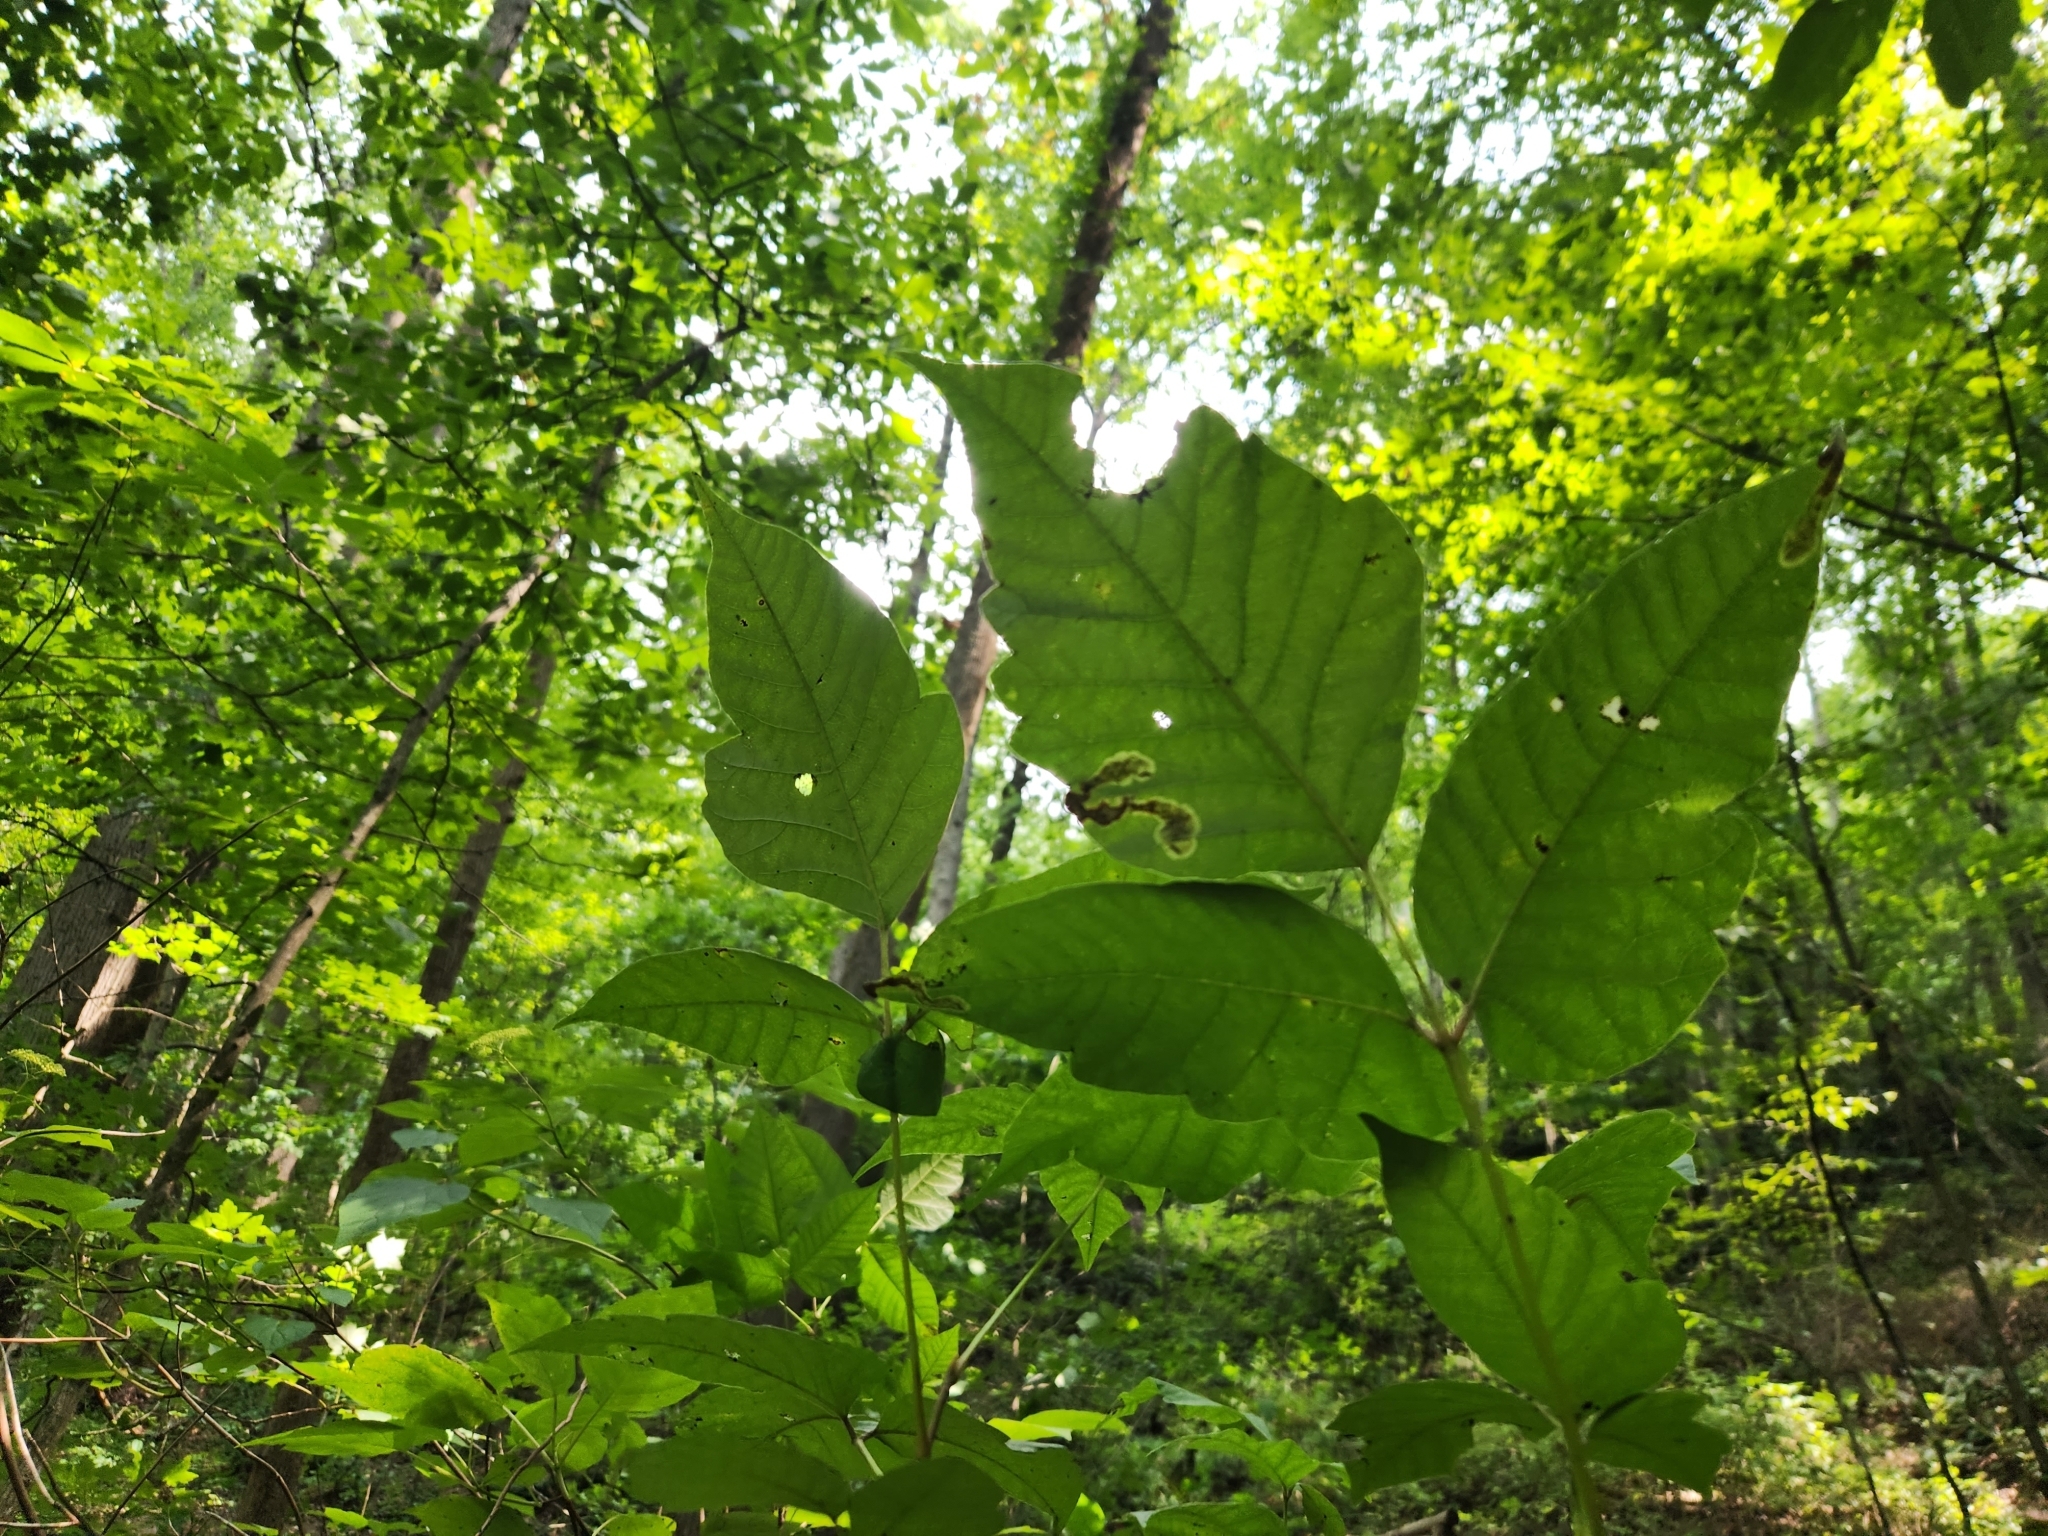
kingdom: Animalia
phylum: Arthropoda
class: Insecta
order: Lepidoptera
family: Gracillariidae
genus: Cameraria
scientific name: Cameraria guttifinitella
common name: Poison ivy leaf-miner moth
